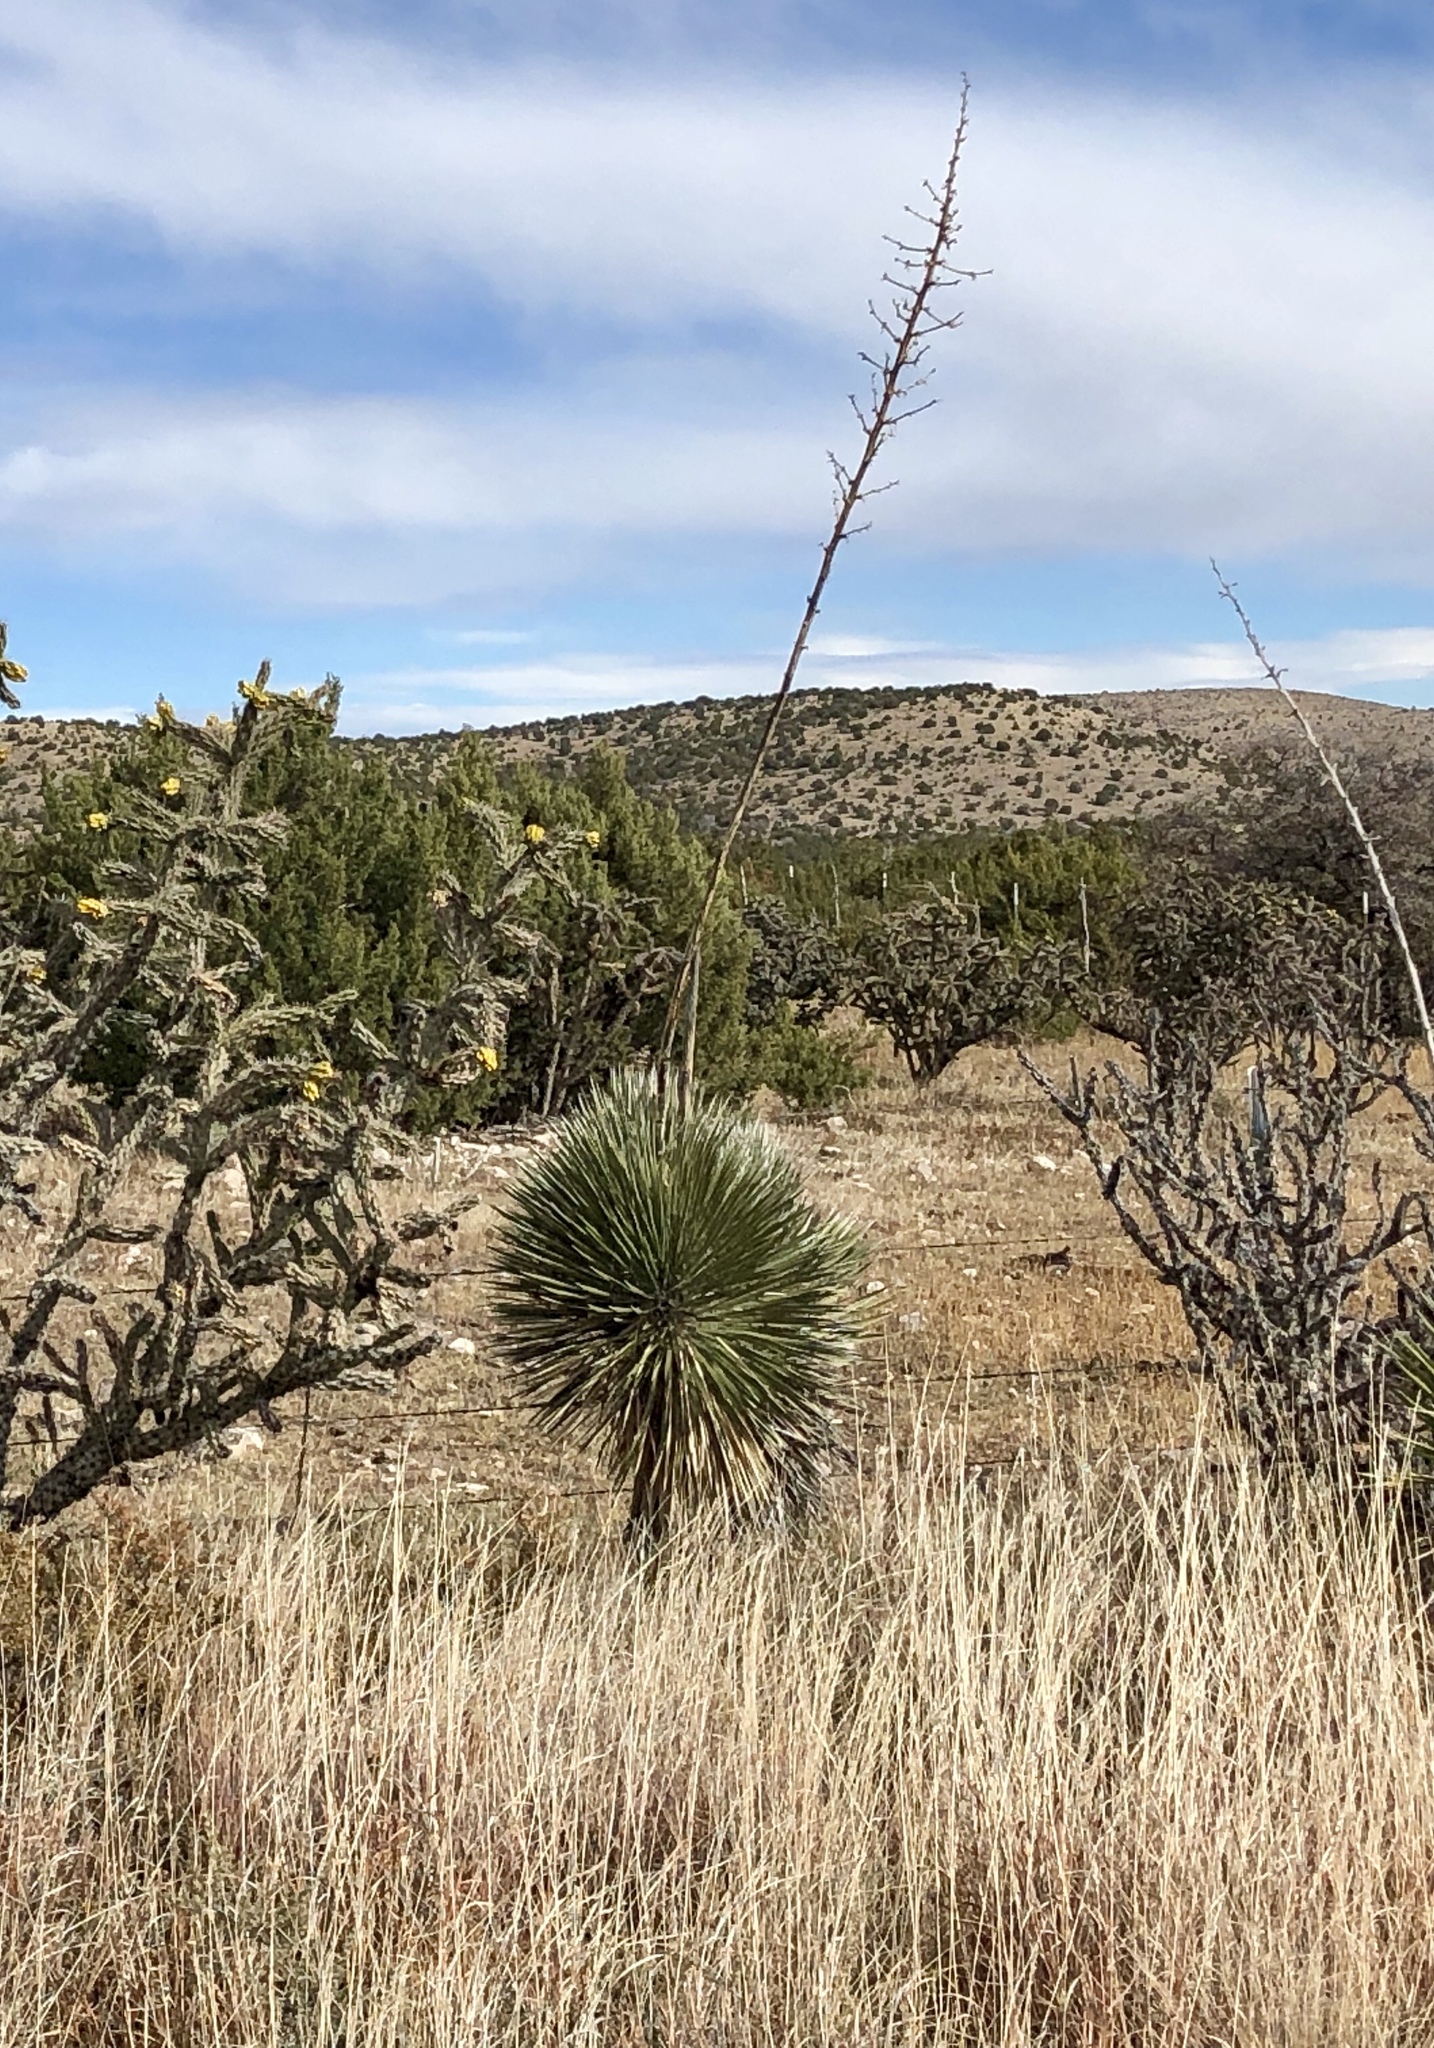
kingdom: Plantae
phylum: Tracheophyta
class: Liliopsida
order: Asparagales
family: Asparagaceae
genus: Yucca
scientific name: Yucca elata
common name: Palmella
